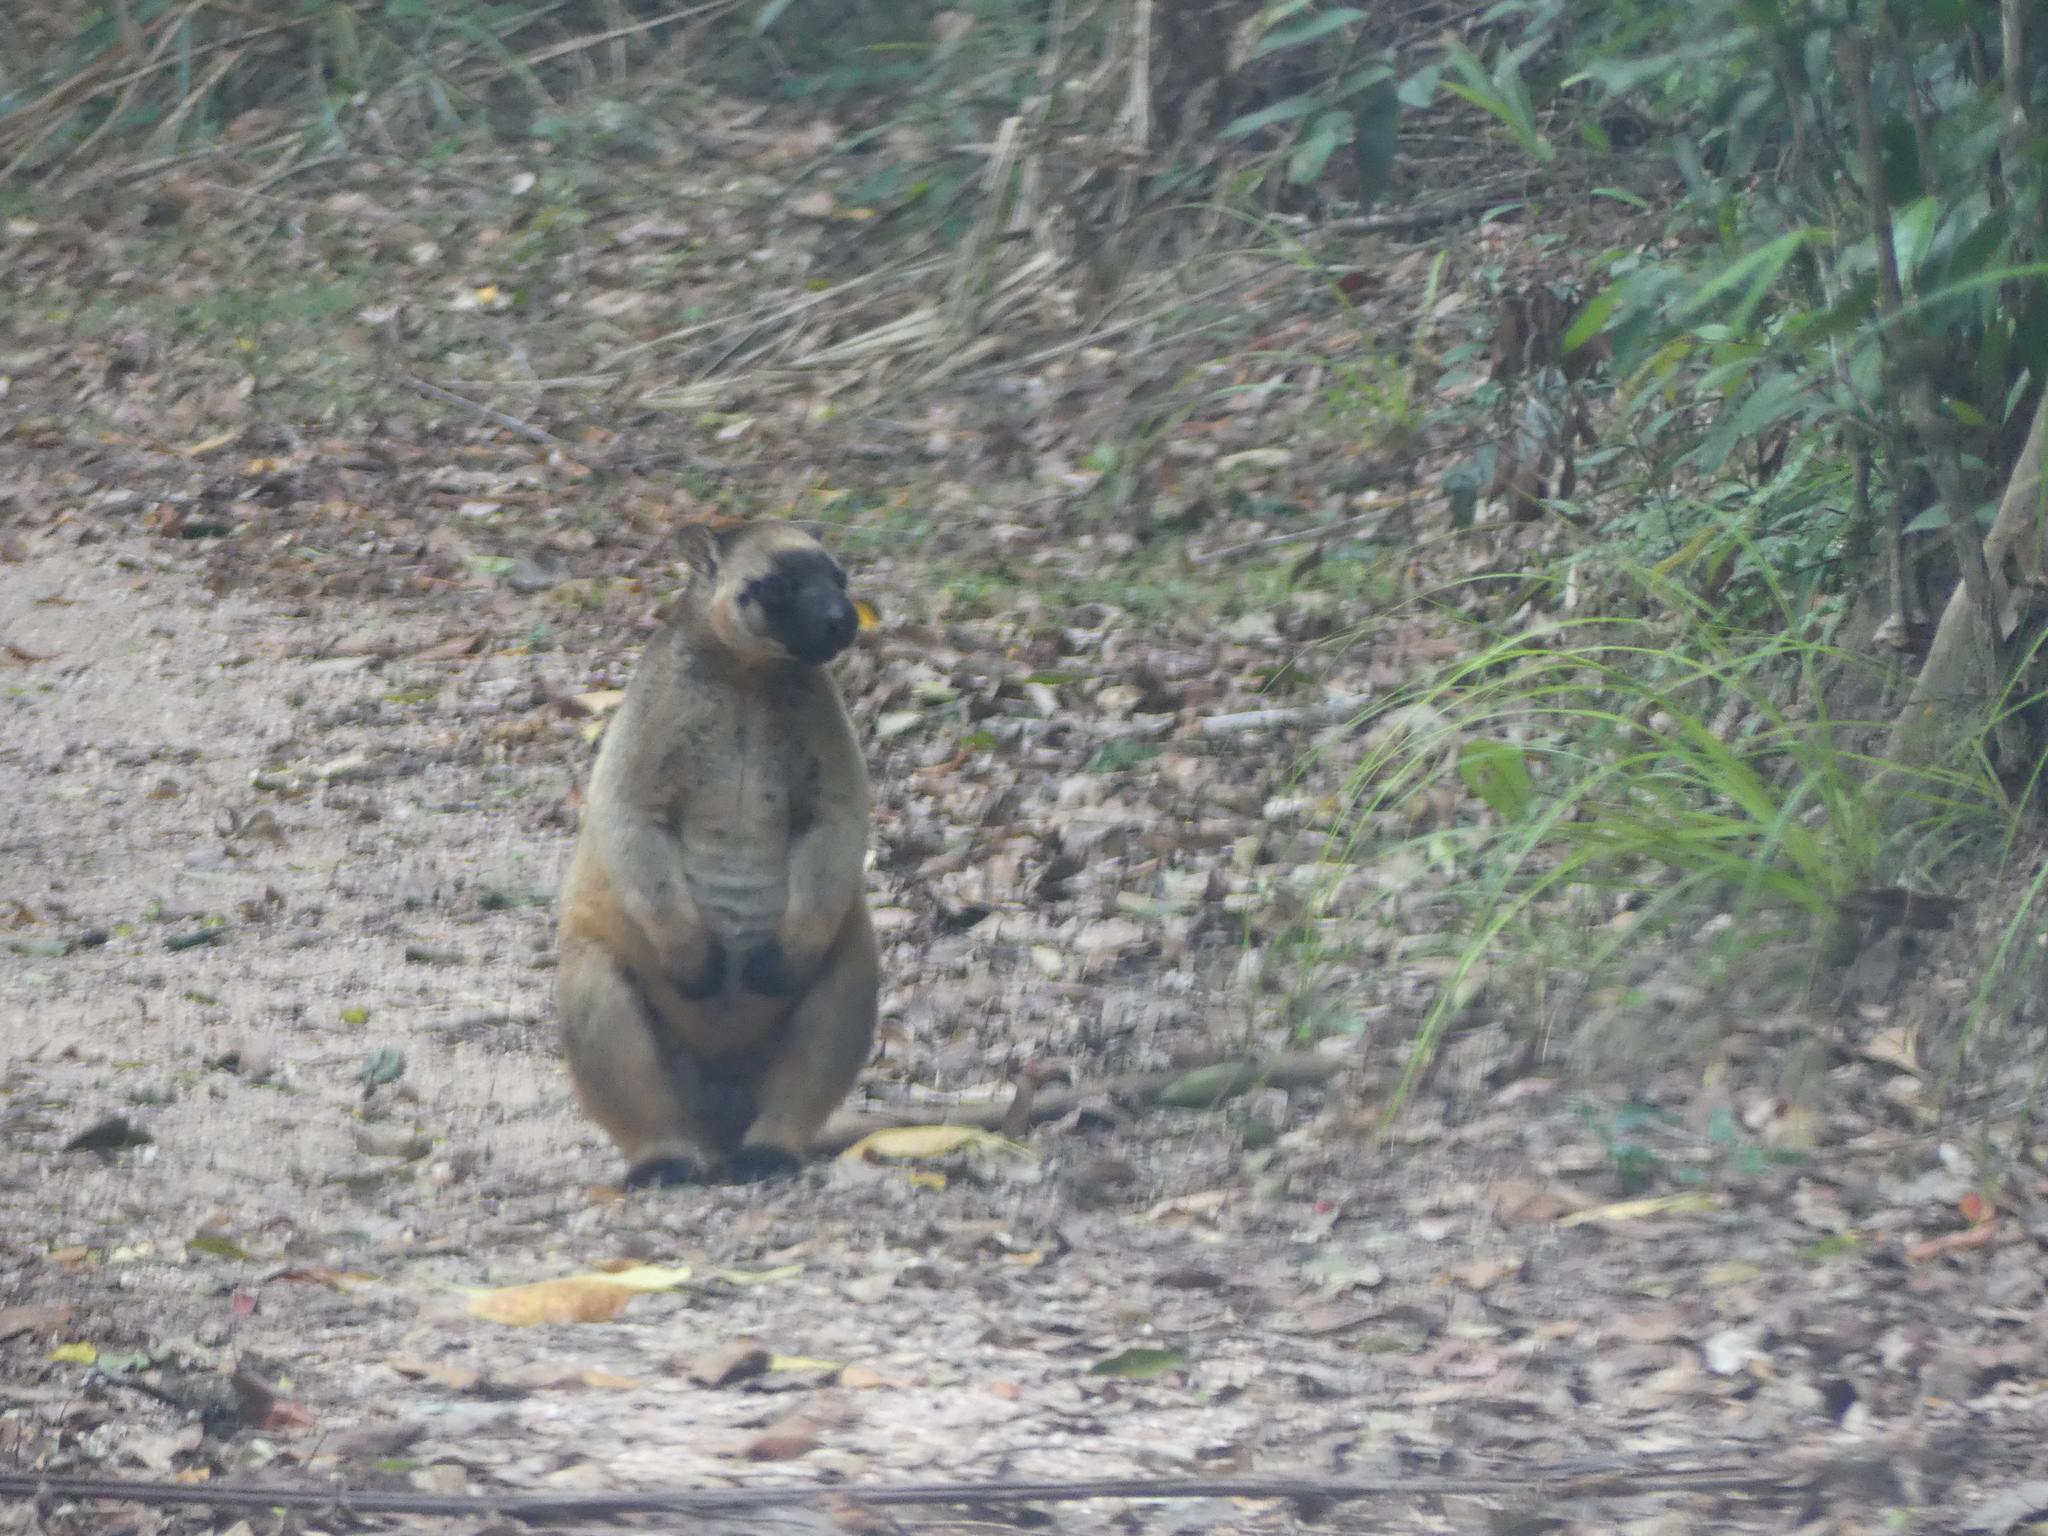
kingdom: Animalia
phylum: Chordata
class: Mammalia
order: Diprotodontia
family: Macropodidae
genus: Dendrolagus
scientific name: Dendrolagus lumholtzi
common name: Lumholtz's tree kangaroo
